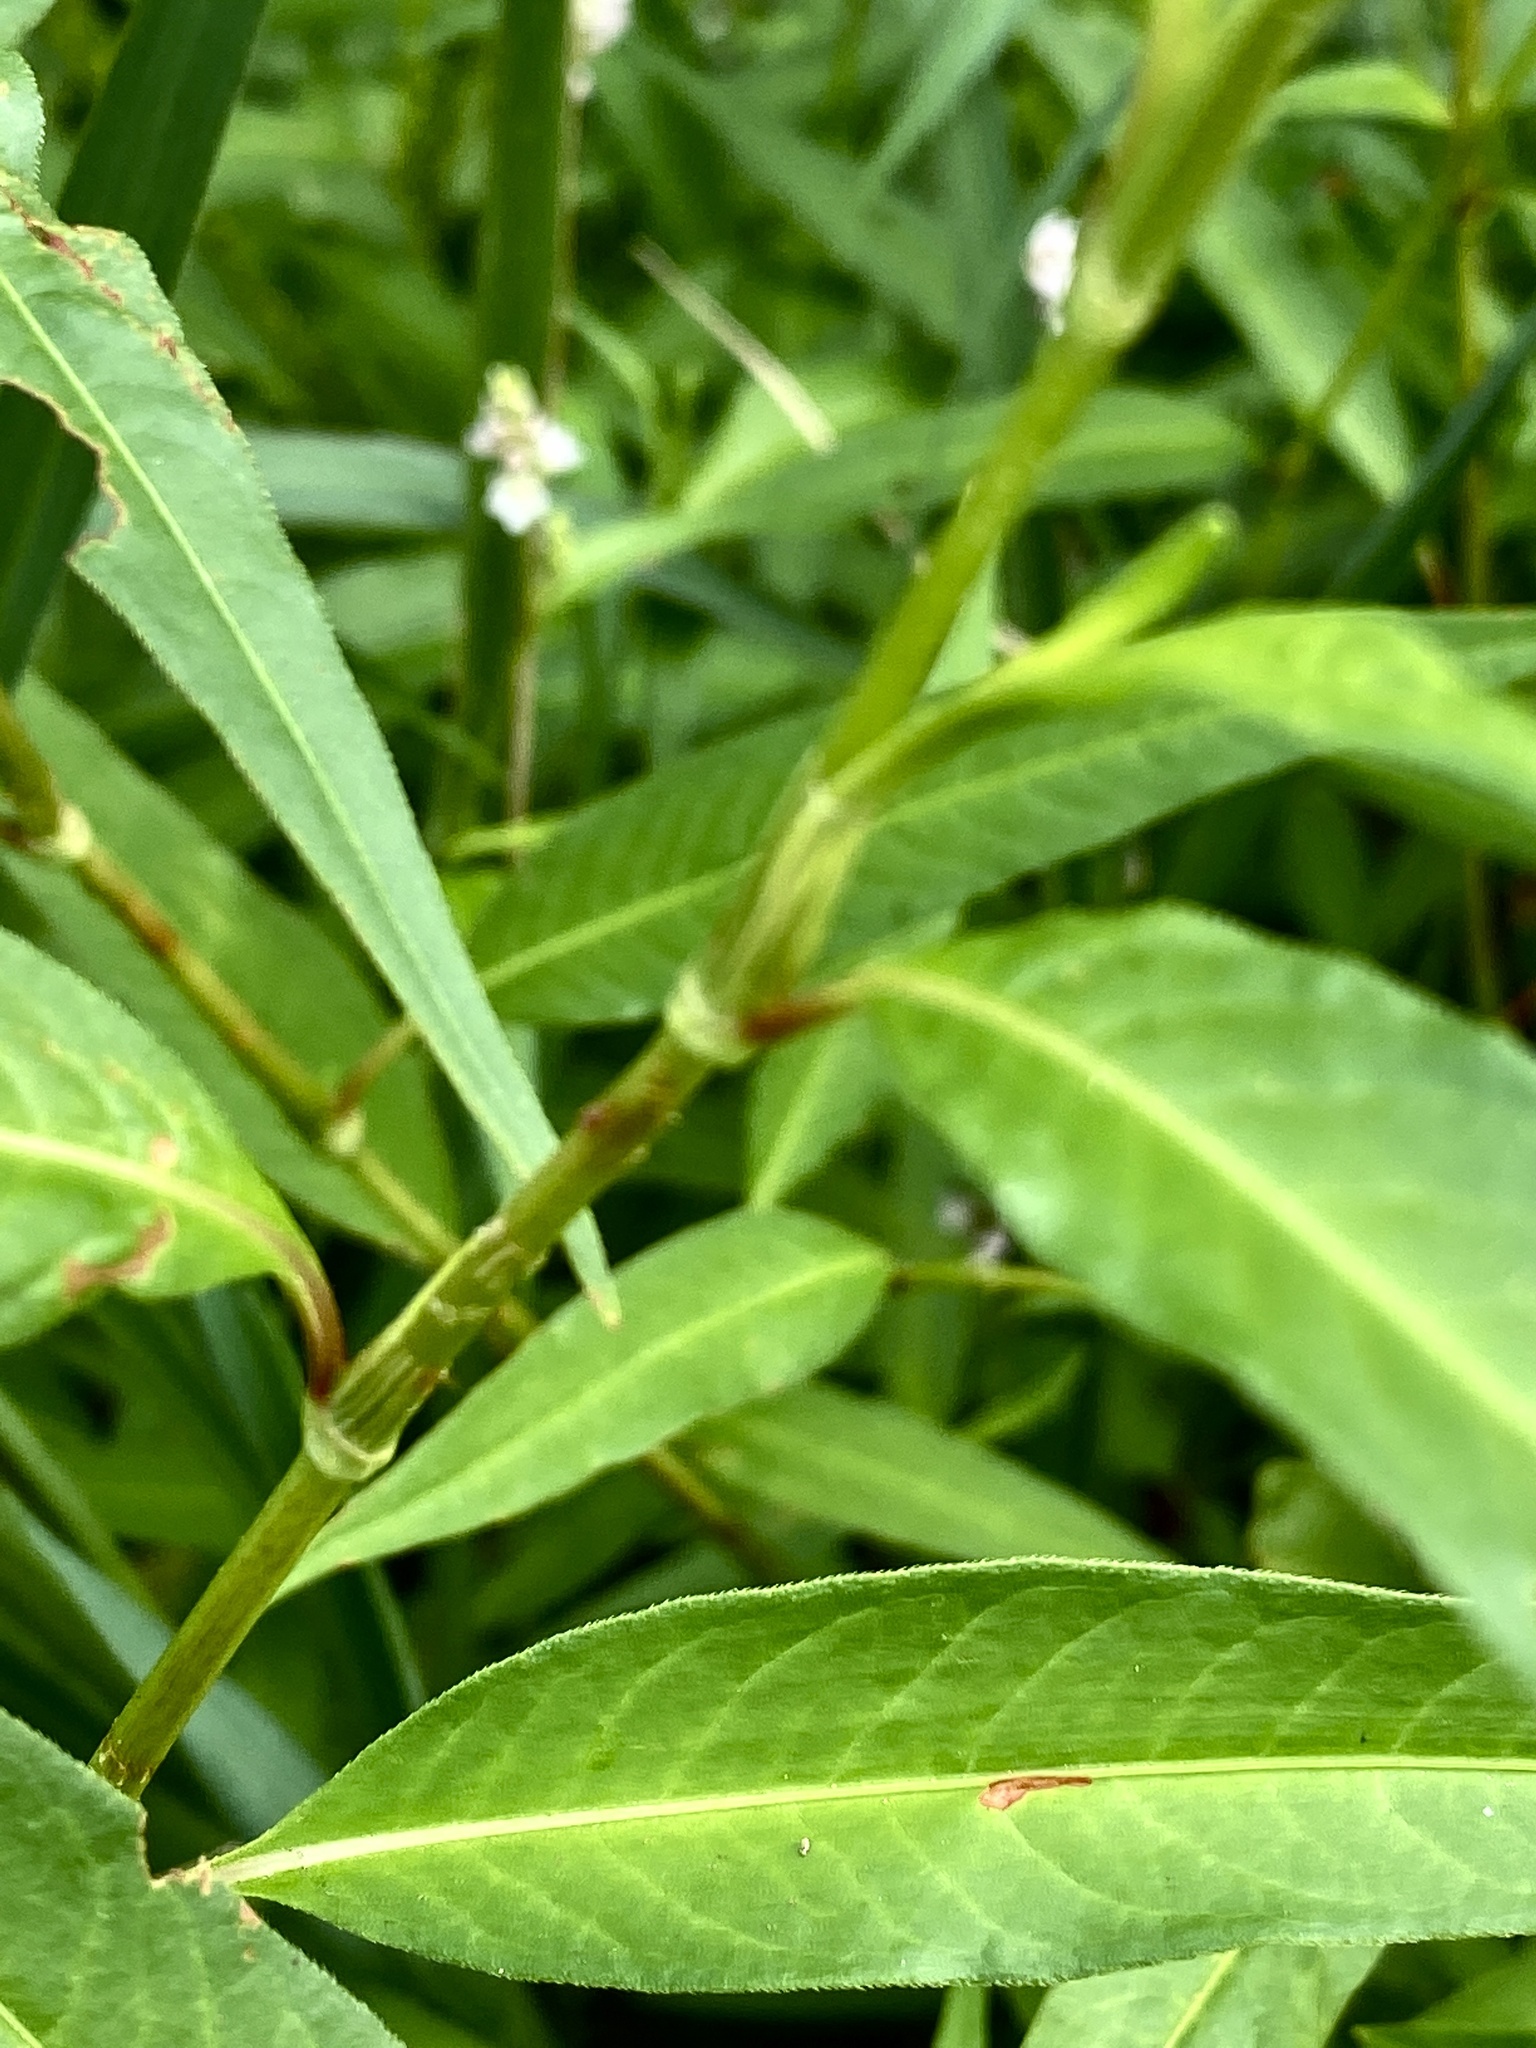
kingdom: Plantae
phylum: Tracheophyta
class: Magnoliopsida
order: Caryophyllales
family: Polygonaceae
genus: Persicaria
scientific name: Persicaria pensylvanica
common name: Pinkweed
